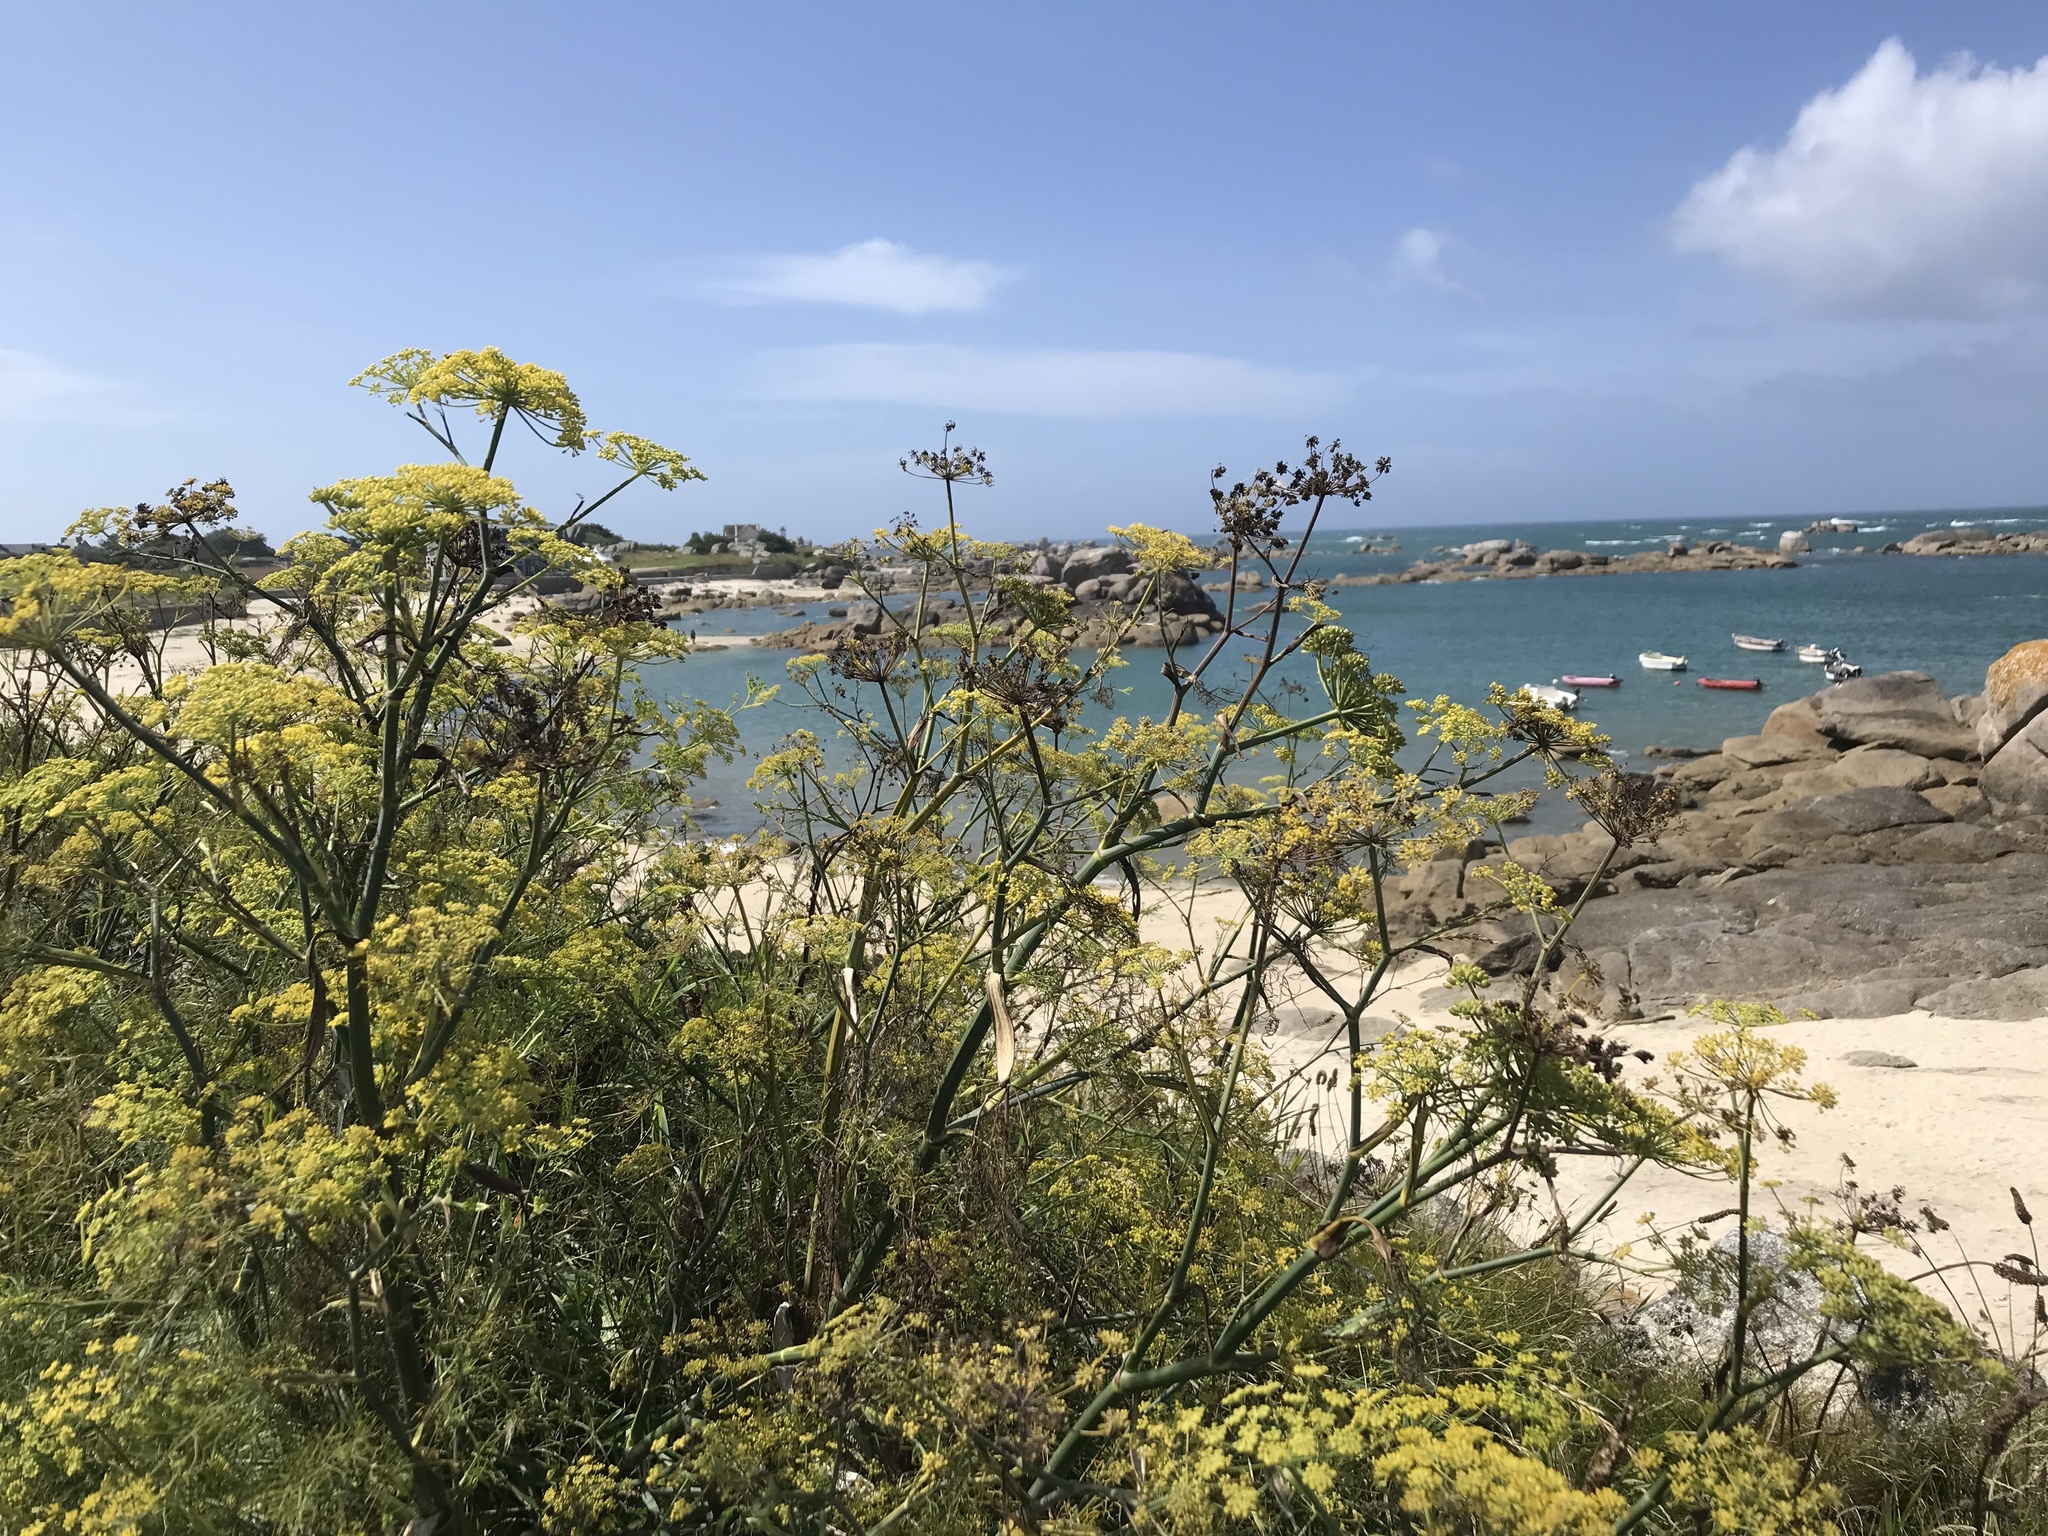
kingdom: Plantae
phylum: Tracheophyta
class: Magnoliopsida
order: Apiales
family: Apiaceae
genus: Foeniculum
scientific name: Foeniculum vulgare
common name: Fennel
